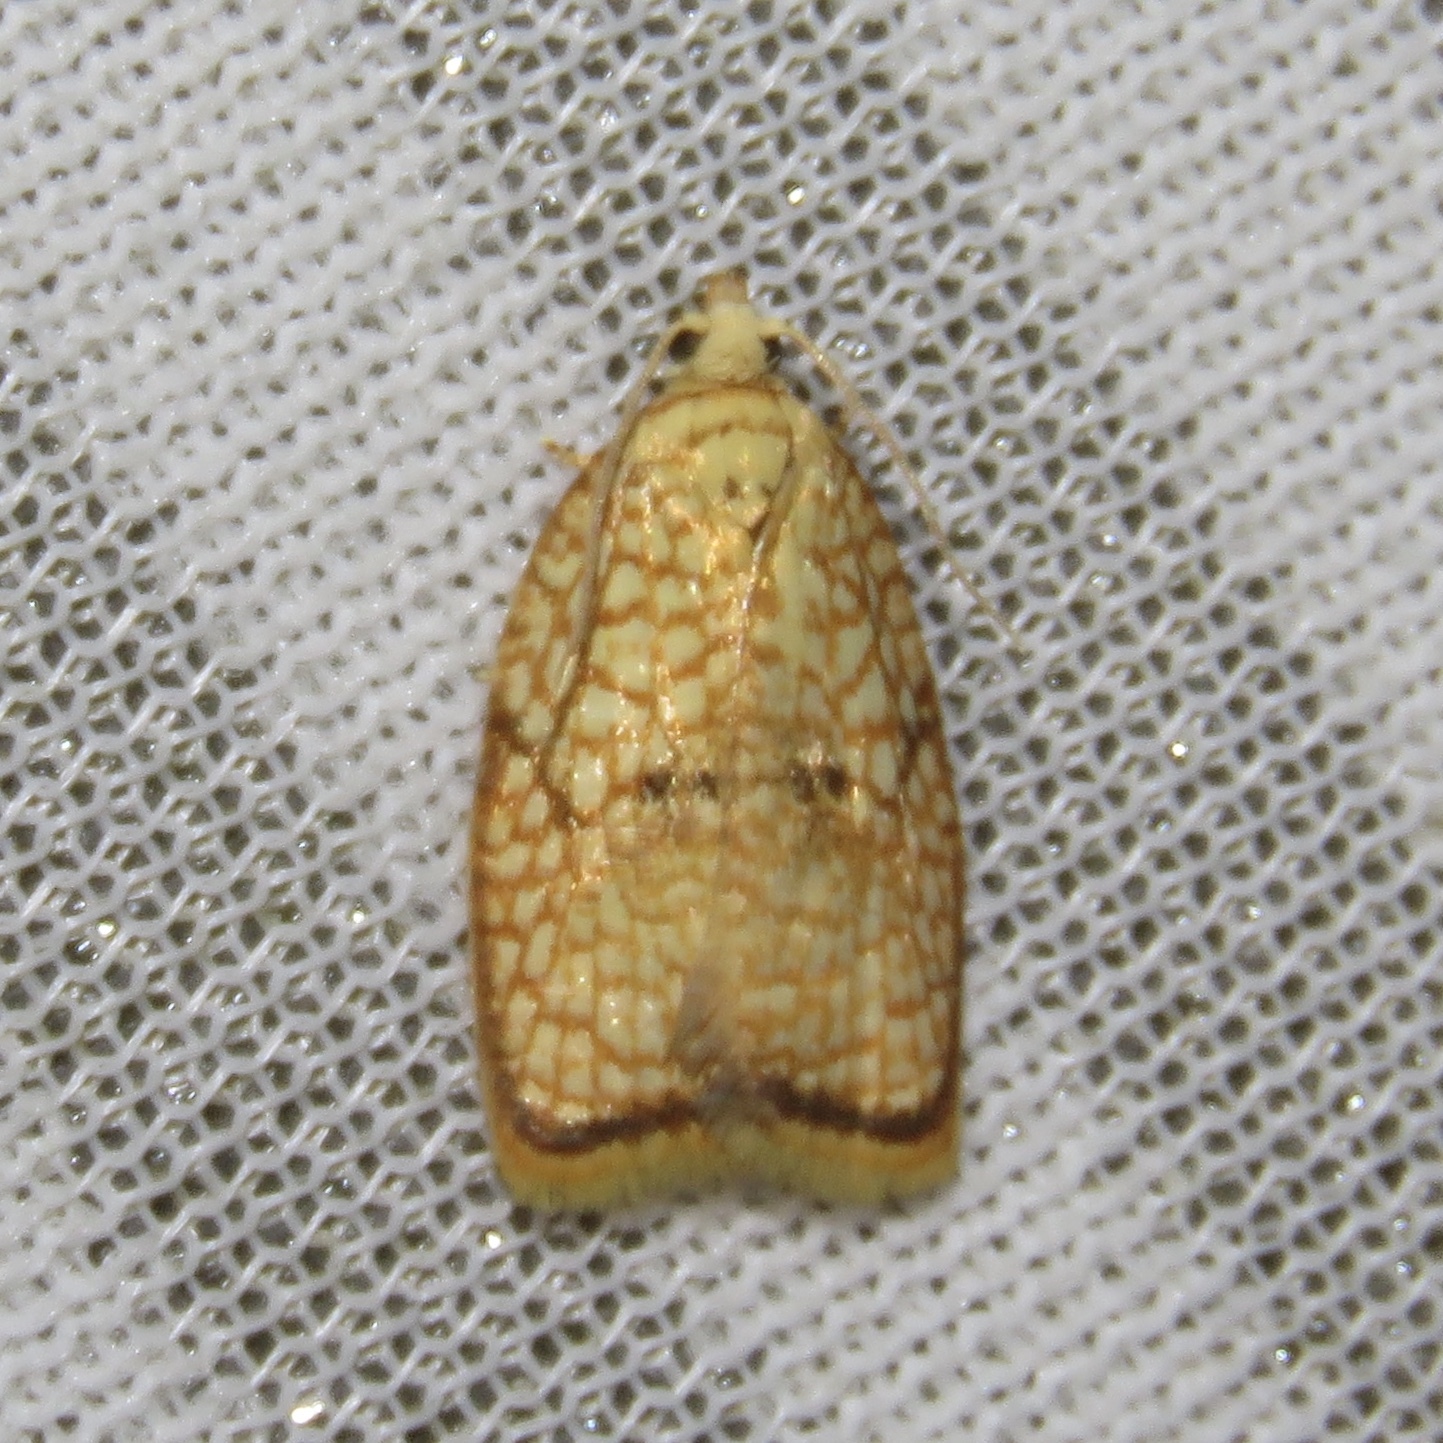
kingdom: Animalia
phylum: Arthropoda
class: Insecta
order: Lepidoptera
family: Tortricidae
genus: Acleris
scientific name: Acleris forsskaleana
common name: Maple button
